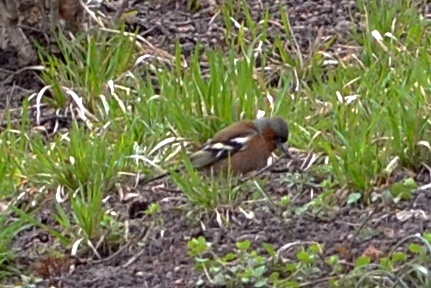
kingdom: Animalia
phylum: Chordata
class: Aves
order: Passeriformes
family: Fringillidae
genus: Fringilla
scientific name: Fringilla coelebs
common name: Common chaffinch
